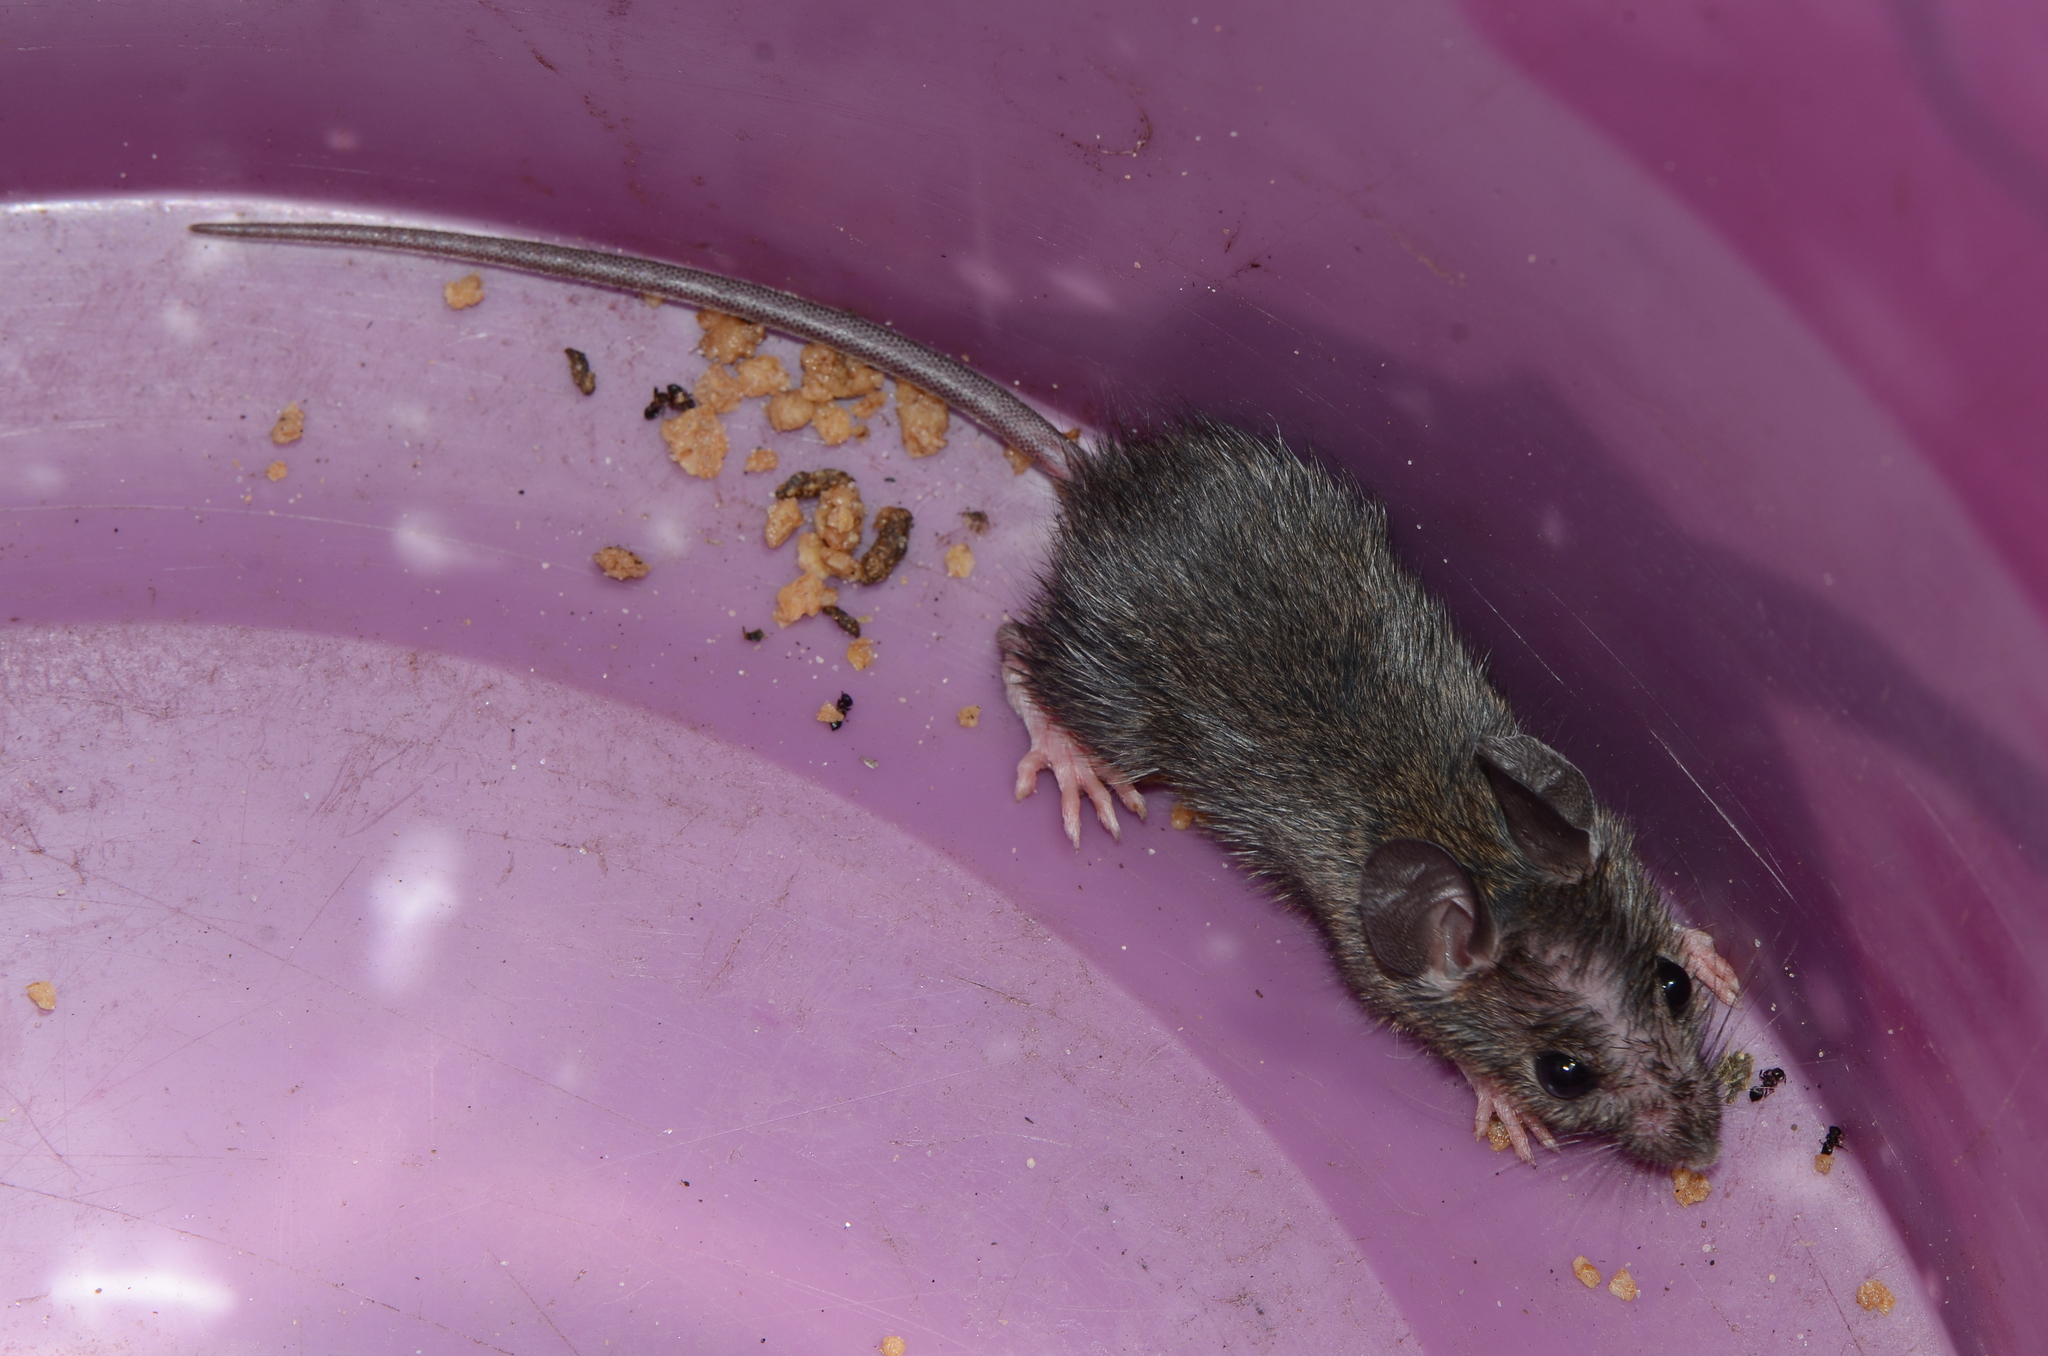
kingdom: Animalia
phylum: Chordata
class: Mammalia
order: Rodentia
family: Muridae
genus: Mastomys
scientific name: Mastomys natalensis
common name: Natal mastomys
